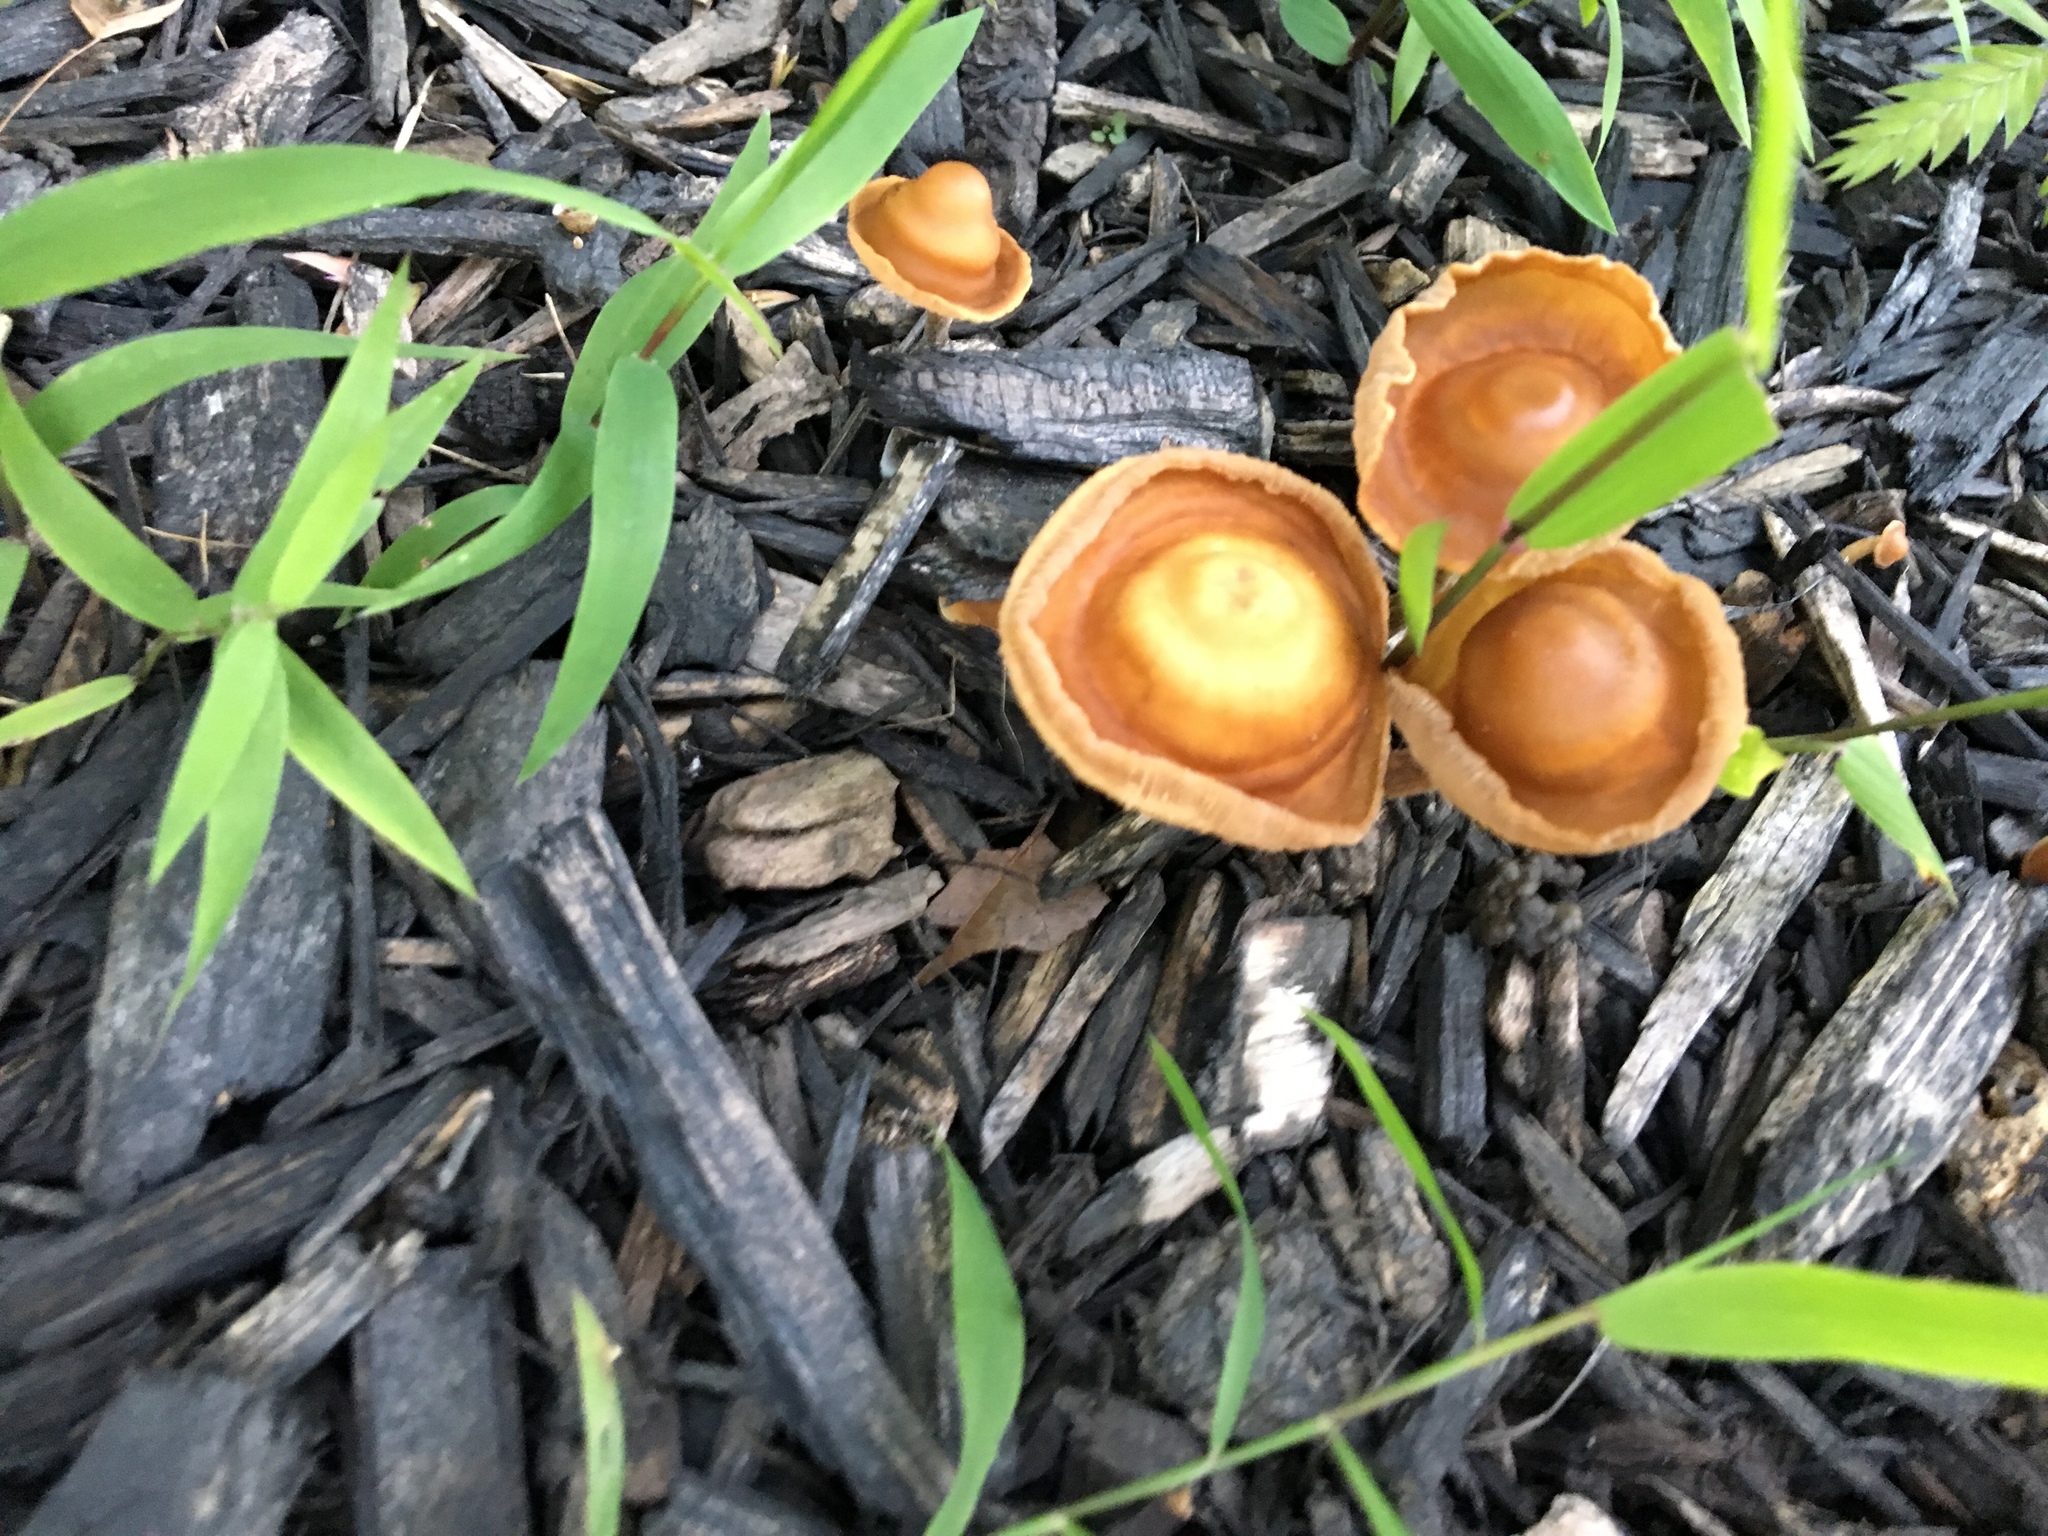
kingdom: Fungi
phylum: Basidiomycota
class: Agaricomycetes
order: Agaricales
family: Omphalotaceae
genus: Gymnopus
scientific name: Gymnopus dryophilus
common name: Penny top
